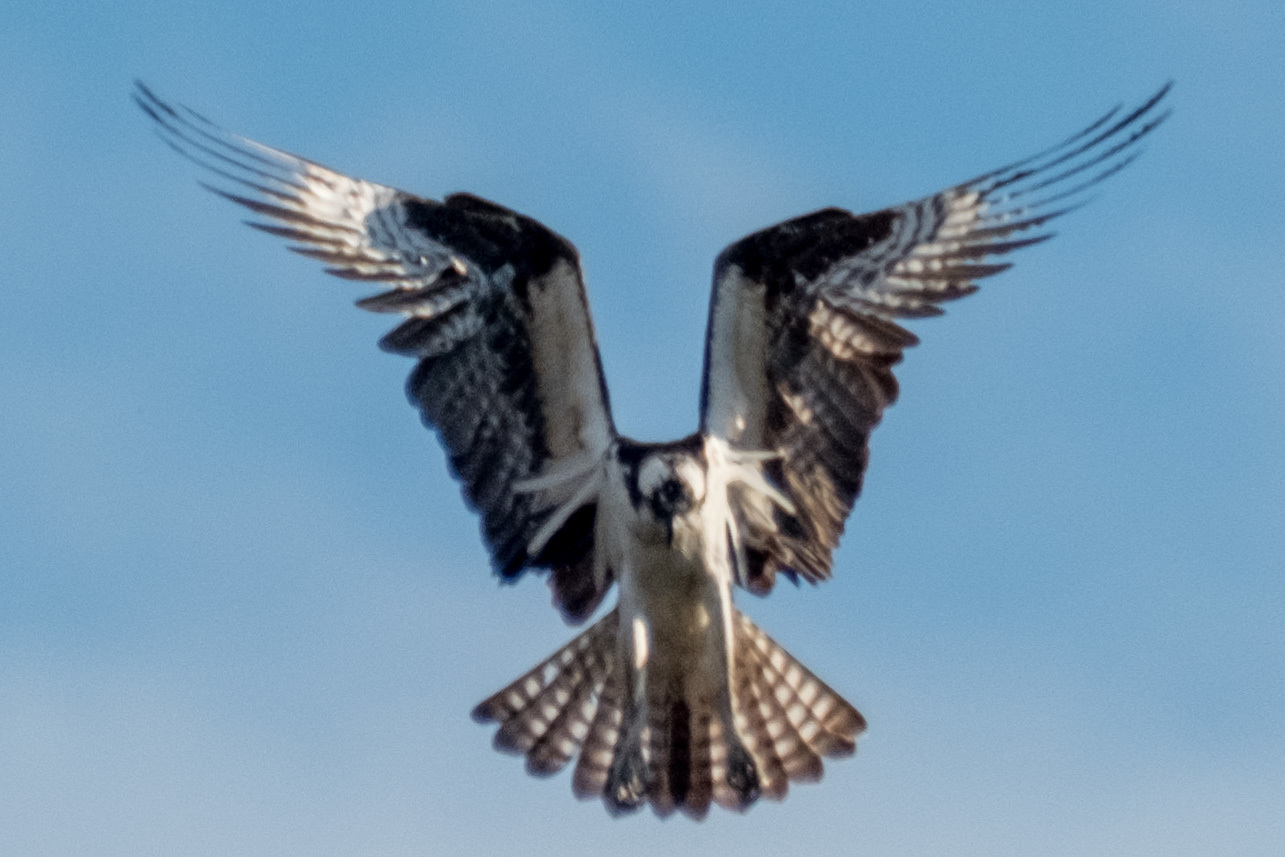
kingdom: Animalia
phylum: Chordata
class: Aves
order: Accipitriformes
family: Pandionidae
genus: Pandion
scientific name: Pandion haliaetus
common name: Osprey
